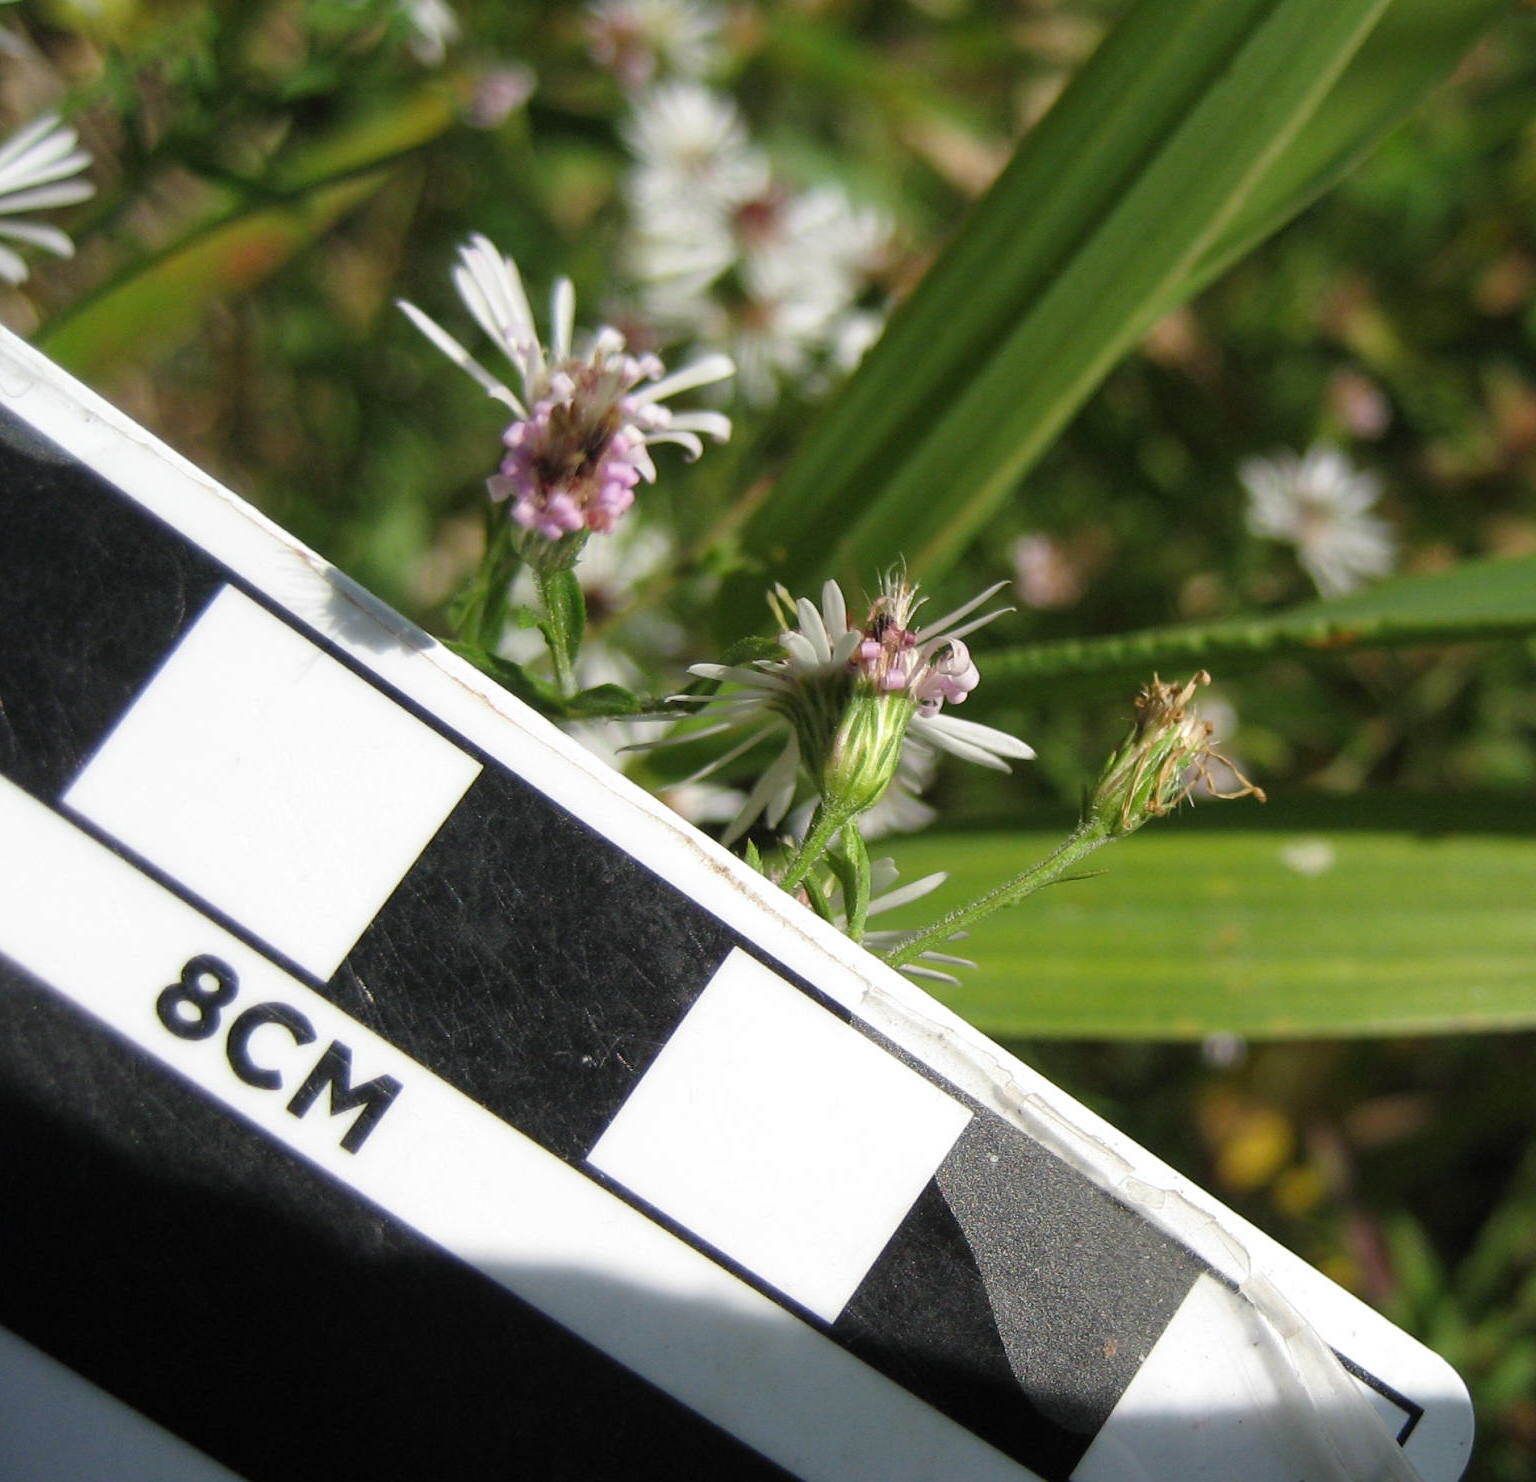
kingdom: Plantae
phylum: Tracheophyta
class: Magnoliopsida
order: Asterales
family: Asteraceae
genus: Symphyotrichum
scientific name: Symphyotrichum lanceolatum
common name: Panicled aster
